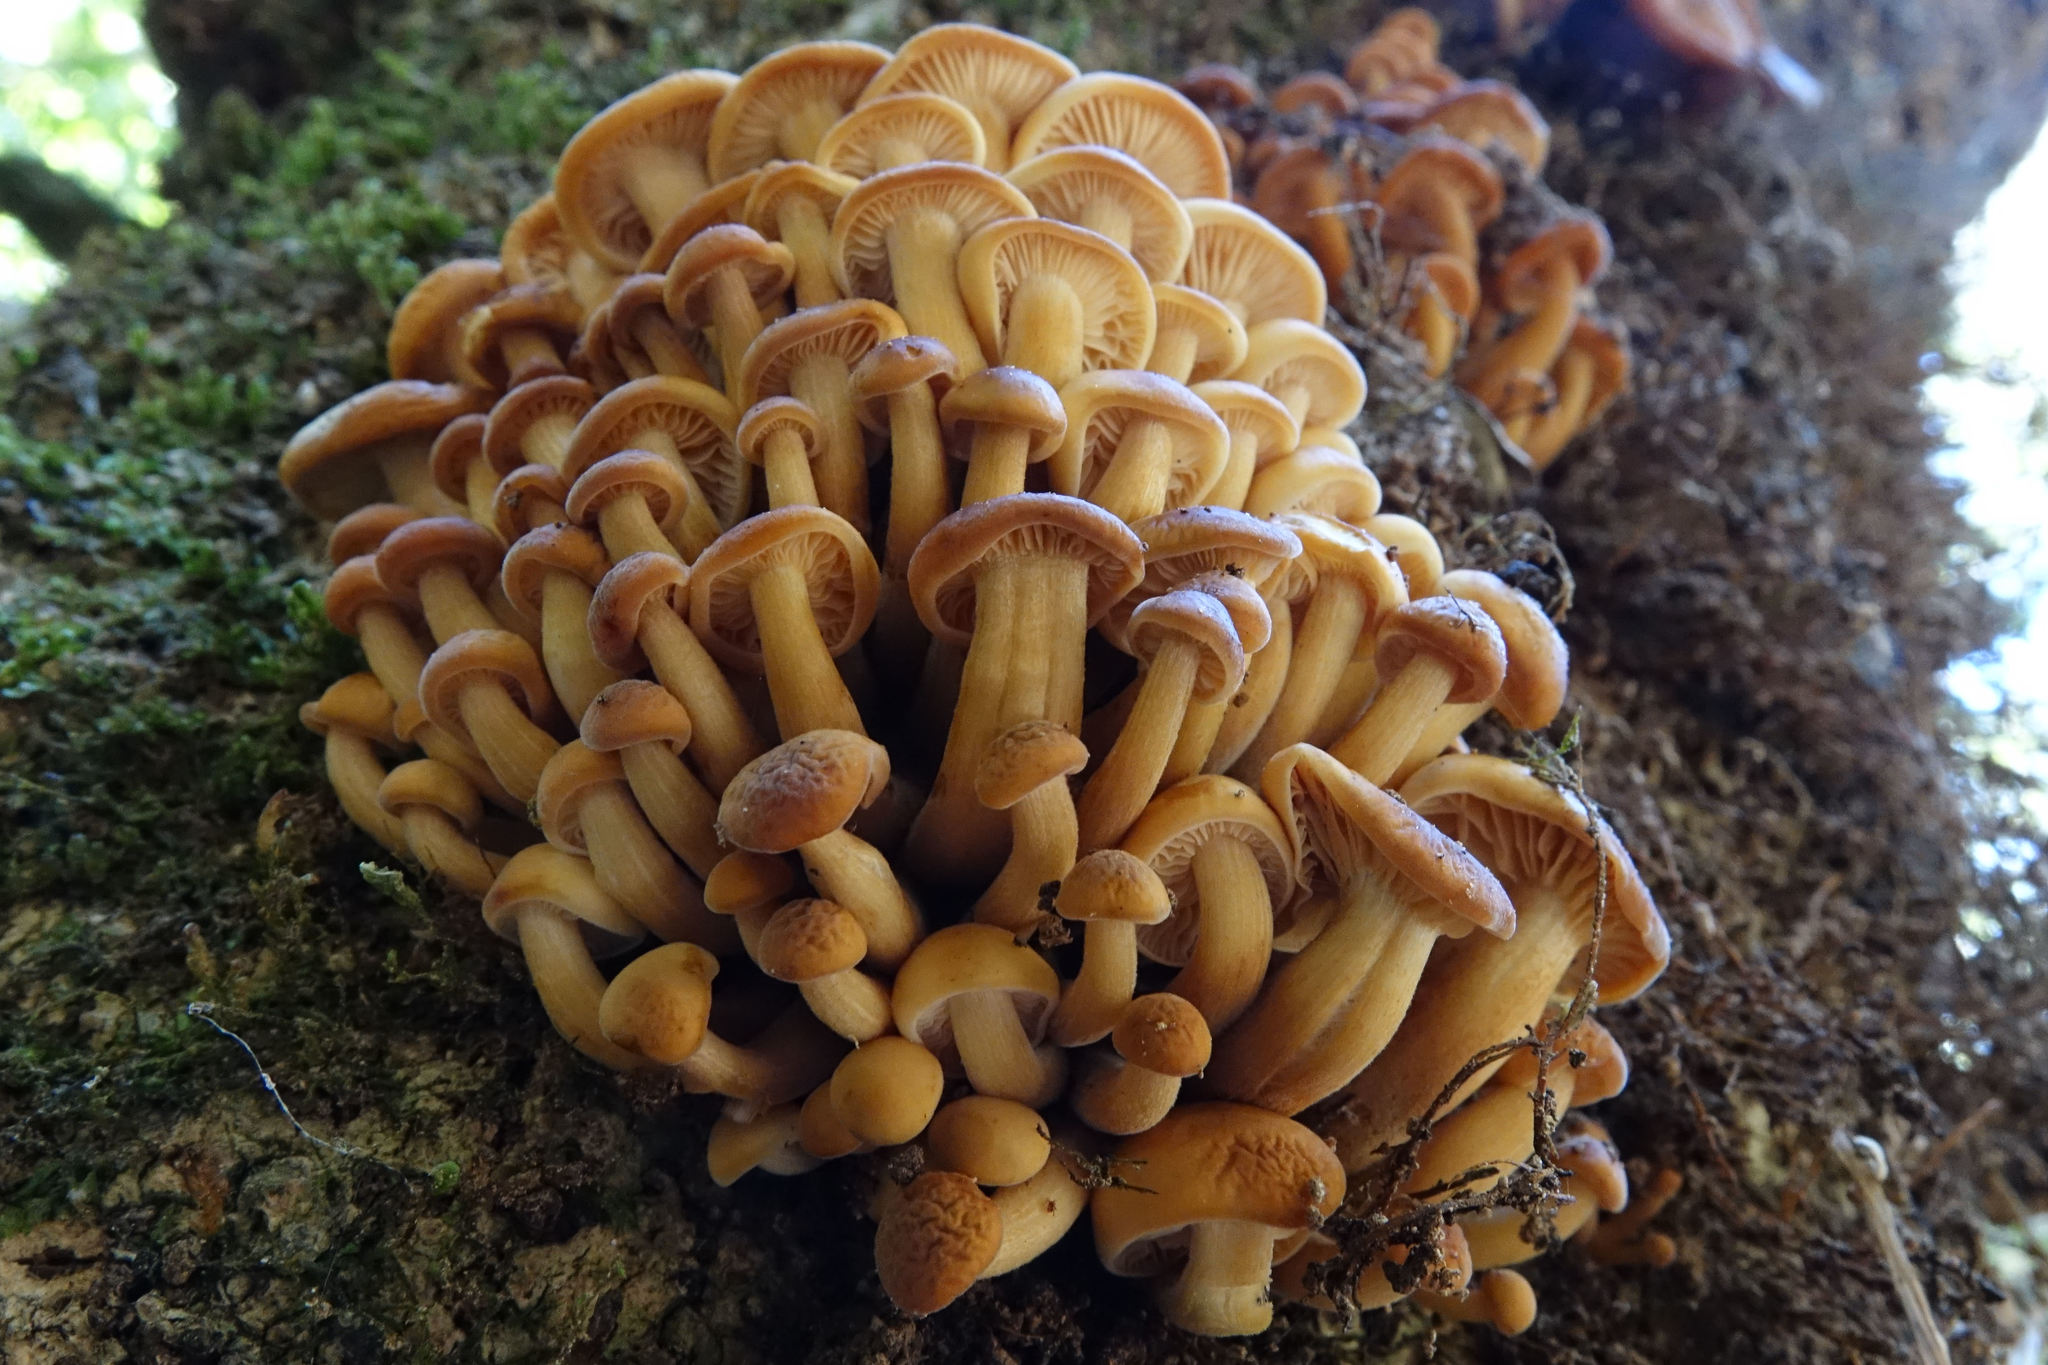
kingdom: Fungi
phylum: Basidiomycota
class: Agaricomycetes
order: Agaricales
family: Physalacriaceae
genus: Flammulina
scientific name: Flammulina velutipes
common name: Velvet shank
